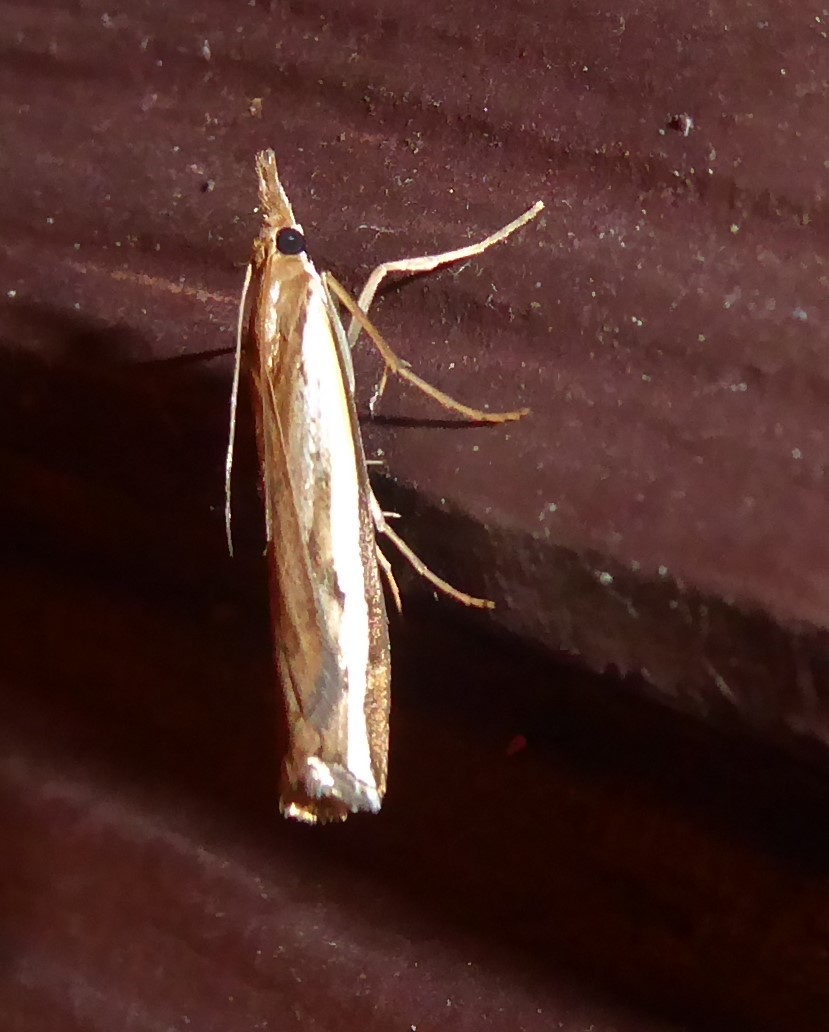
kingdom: Animalia
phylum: Arthropoda
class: Insecta
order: Lepidoptera
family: Crambidae
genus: Orocrambus
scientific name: Orocrambus flexuosellus
